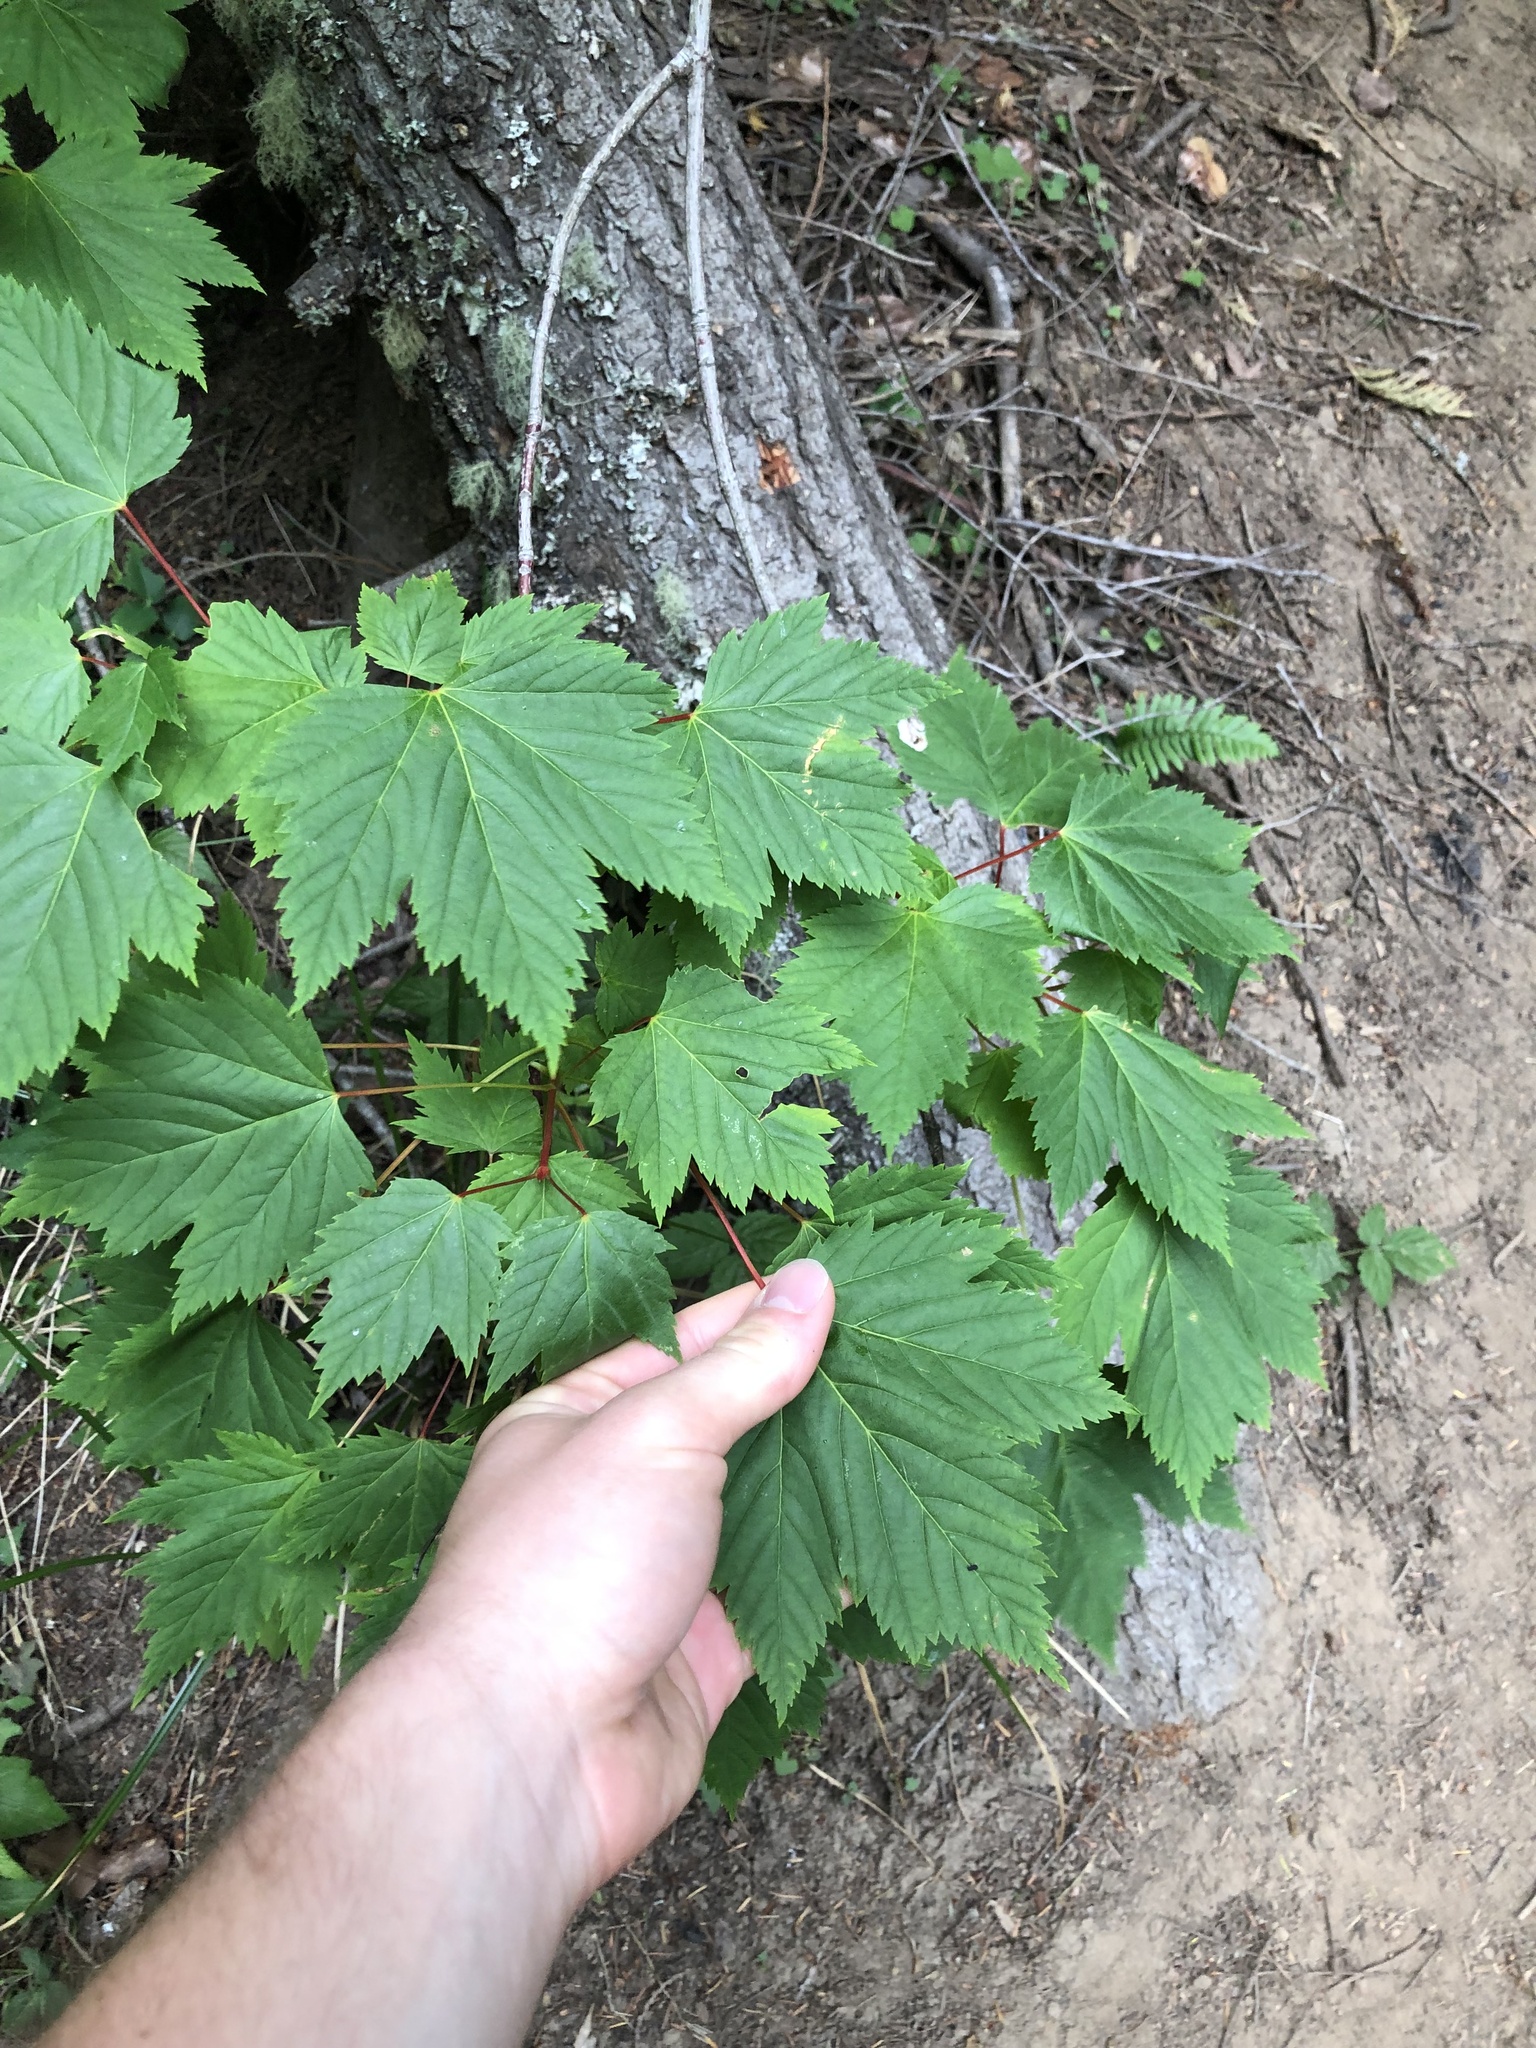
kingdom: Plantae
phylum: Tracheophyta
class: Magnoliopsida
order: Sapindales
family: Sapindaceae
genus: Acer
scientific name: Acer glabrum
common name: Rocky mountain maple
